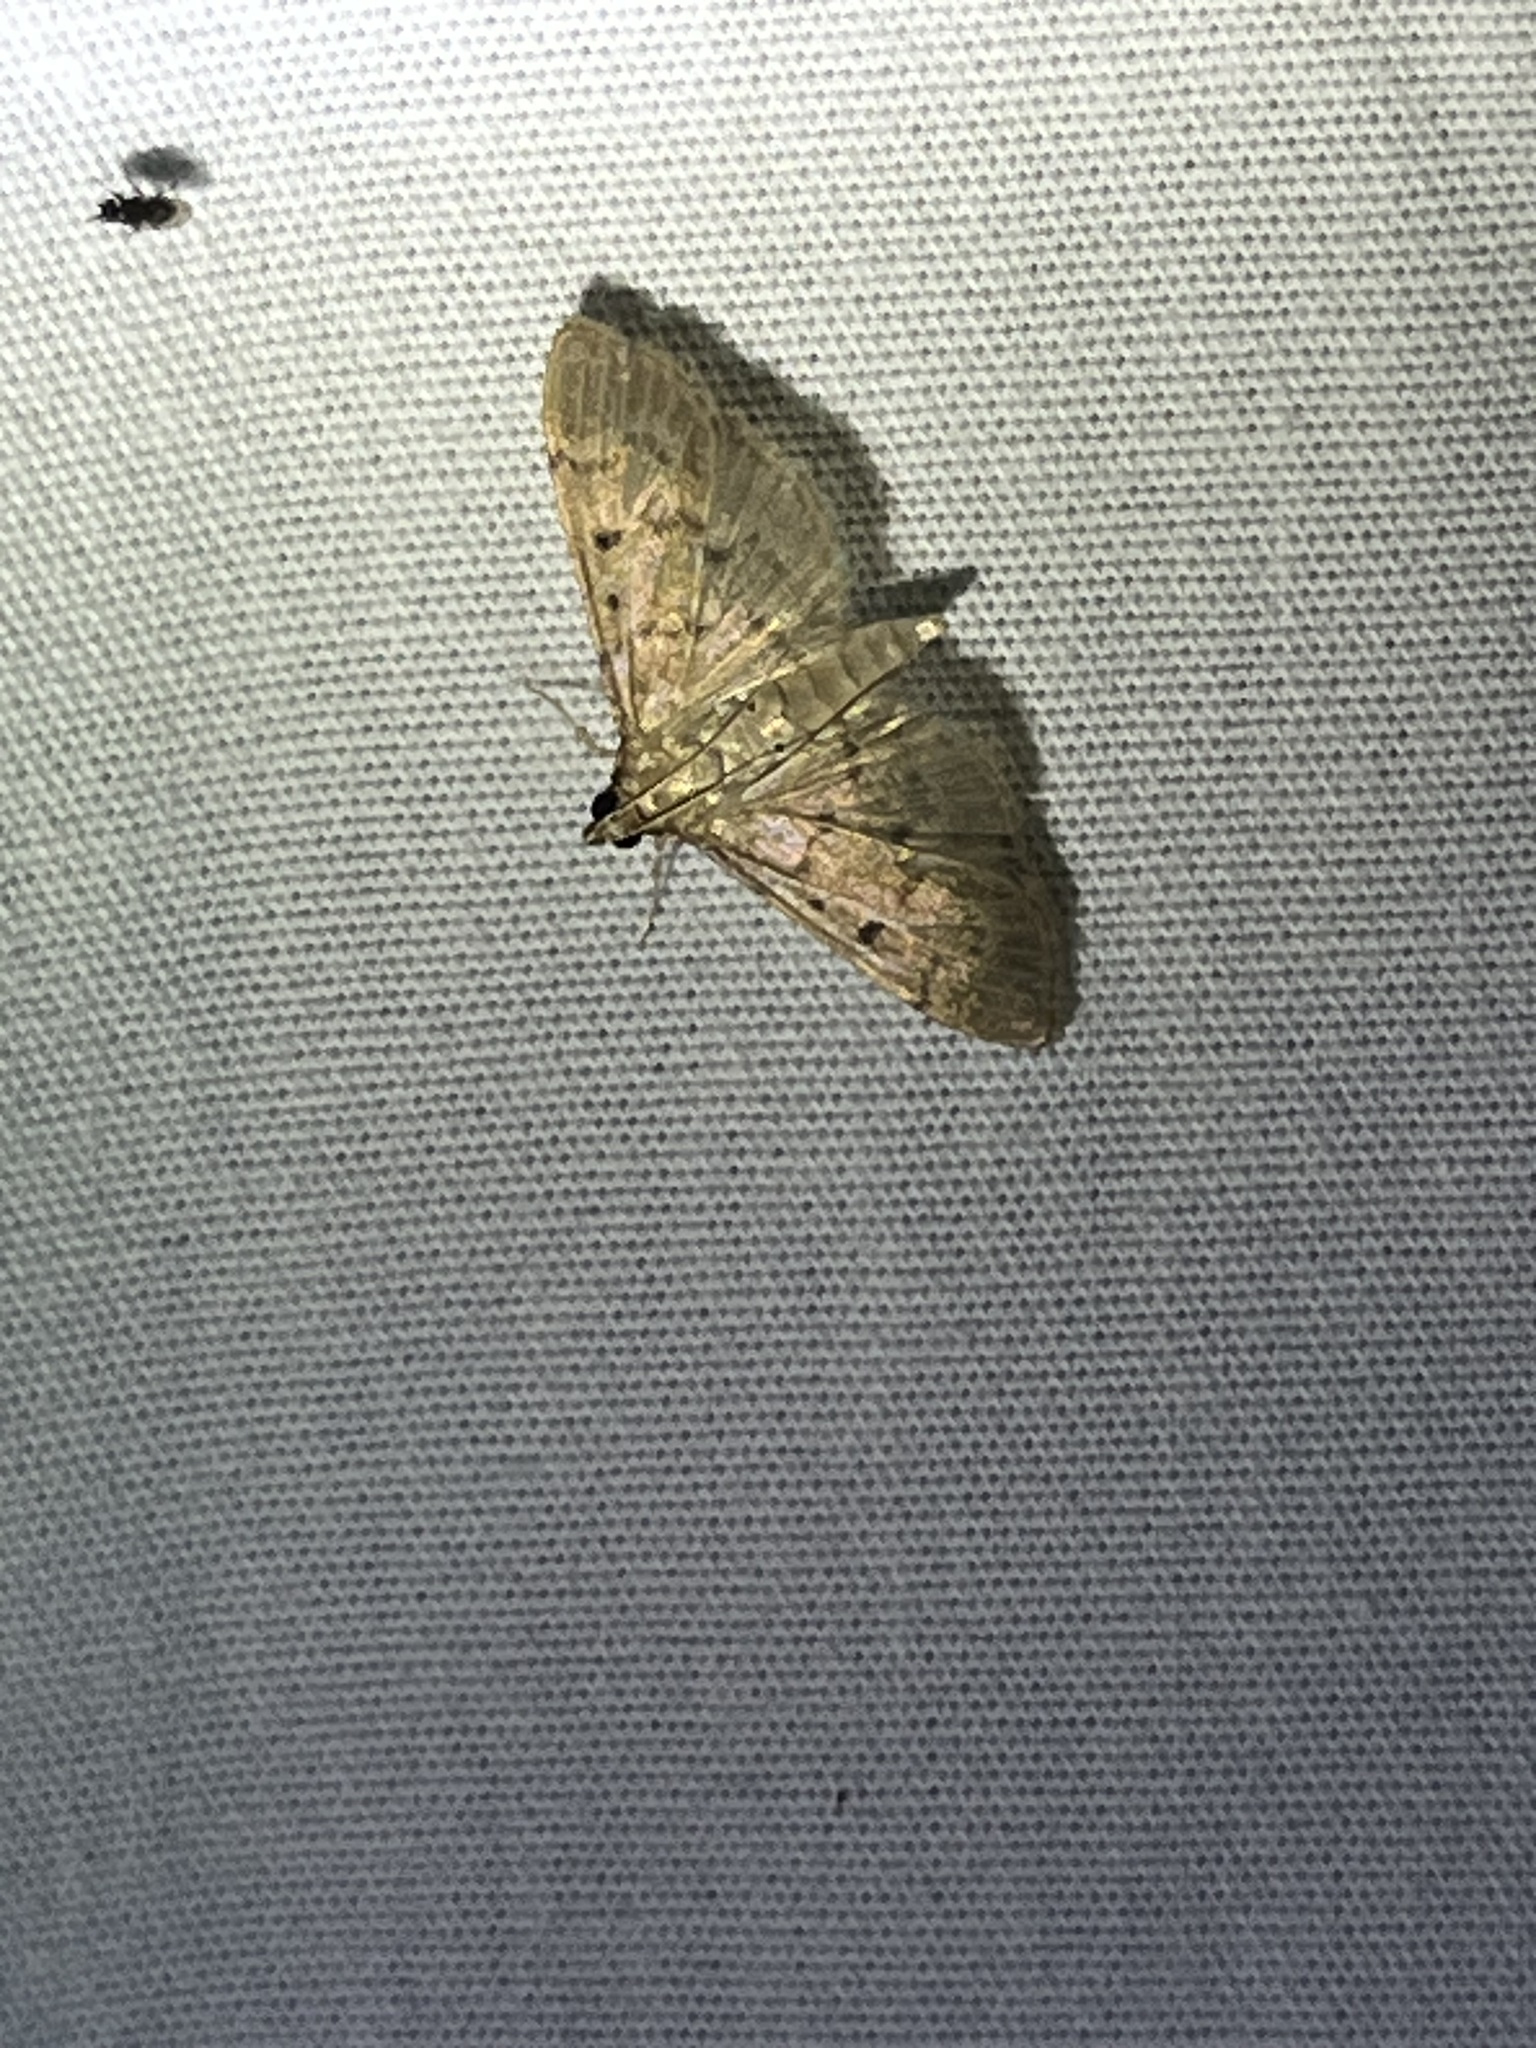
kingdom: Animalia
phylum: Arthropoda
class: Insecta
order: Lepidoptera
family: Crambidae
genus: Herpetogramma
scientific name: Herpetogramma bipunctalis
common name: Southern beet webworm
